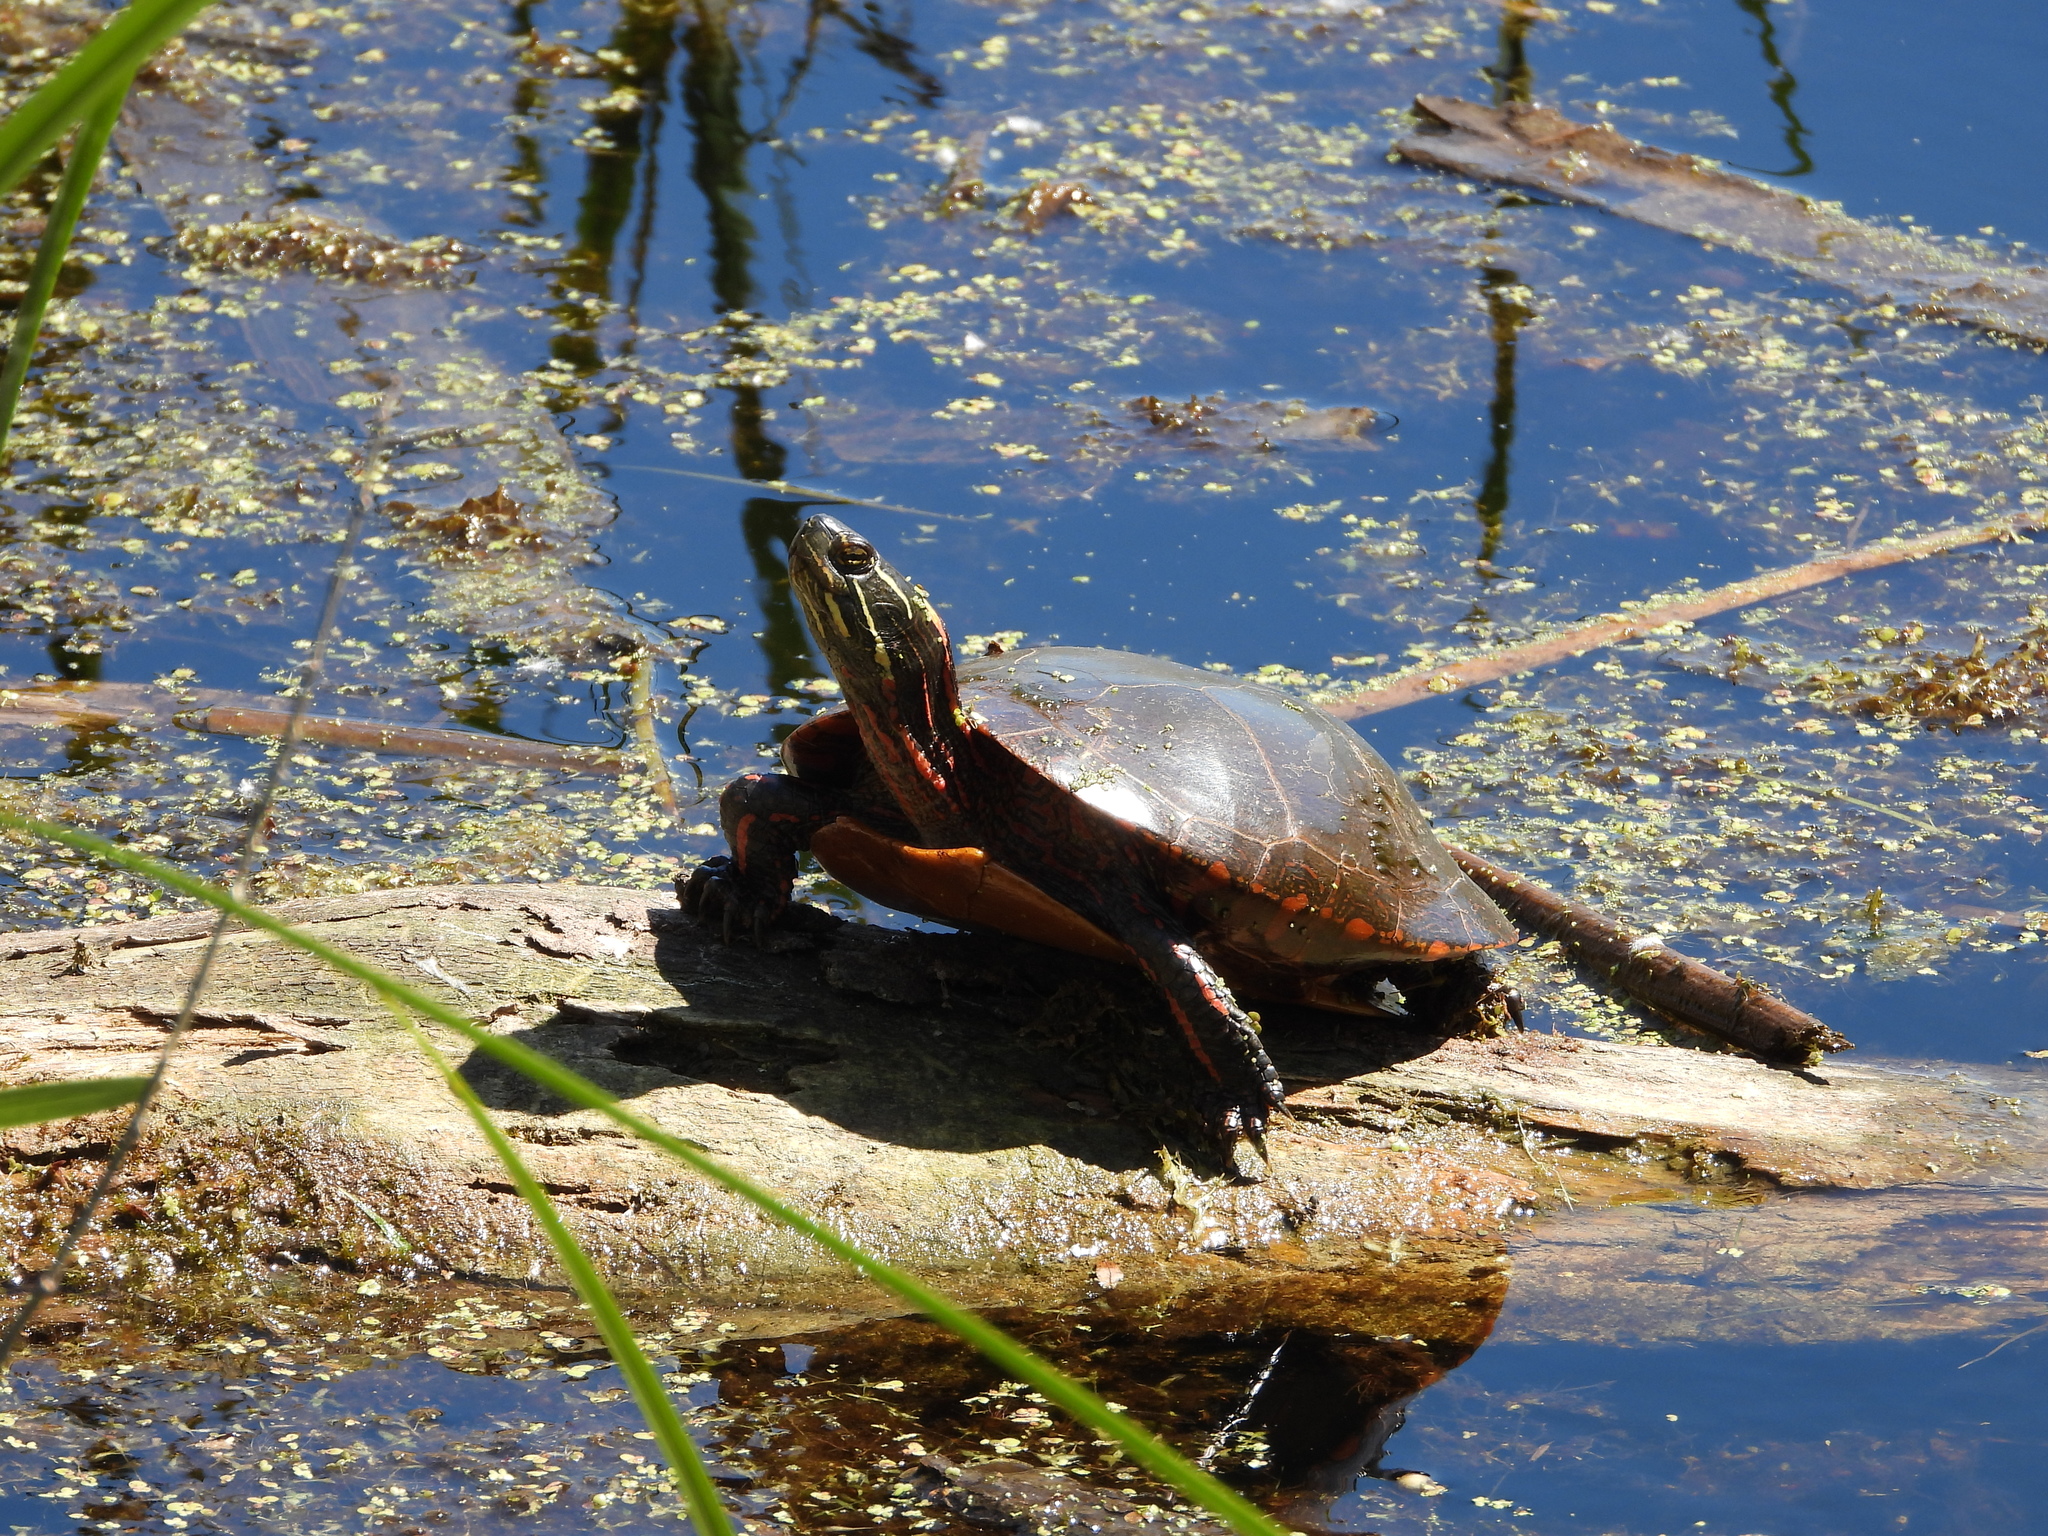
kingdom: Animalia
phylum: Chordata
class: Testudines
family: Emydidae
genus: Chrysemys
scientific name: Chrysemys picta
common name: Painted turtle
